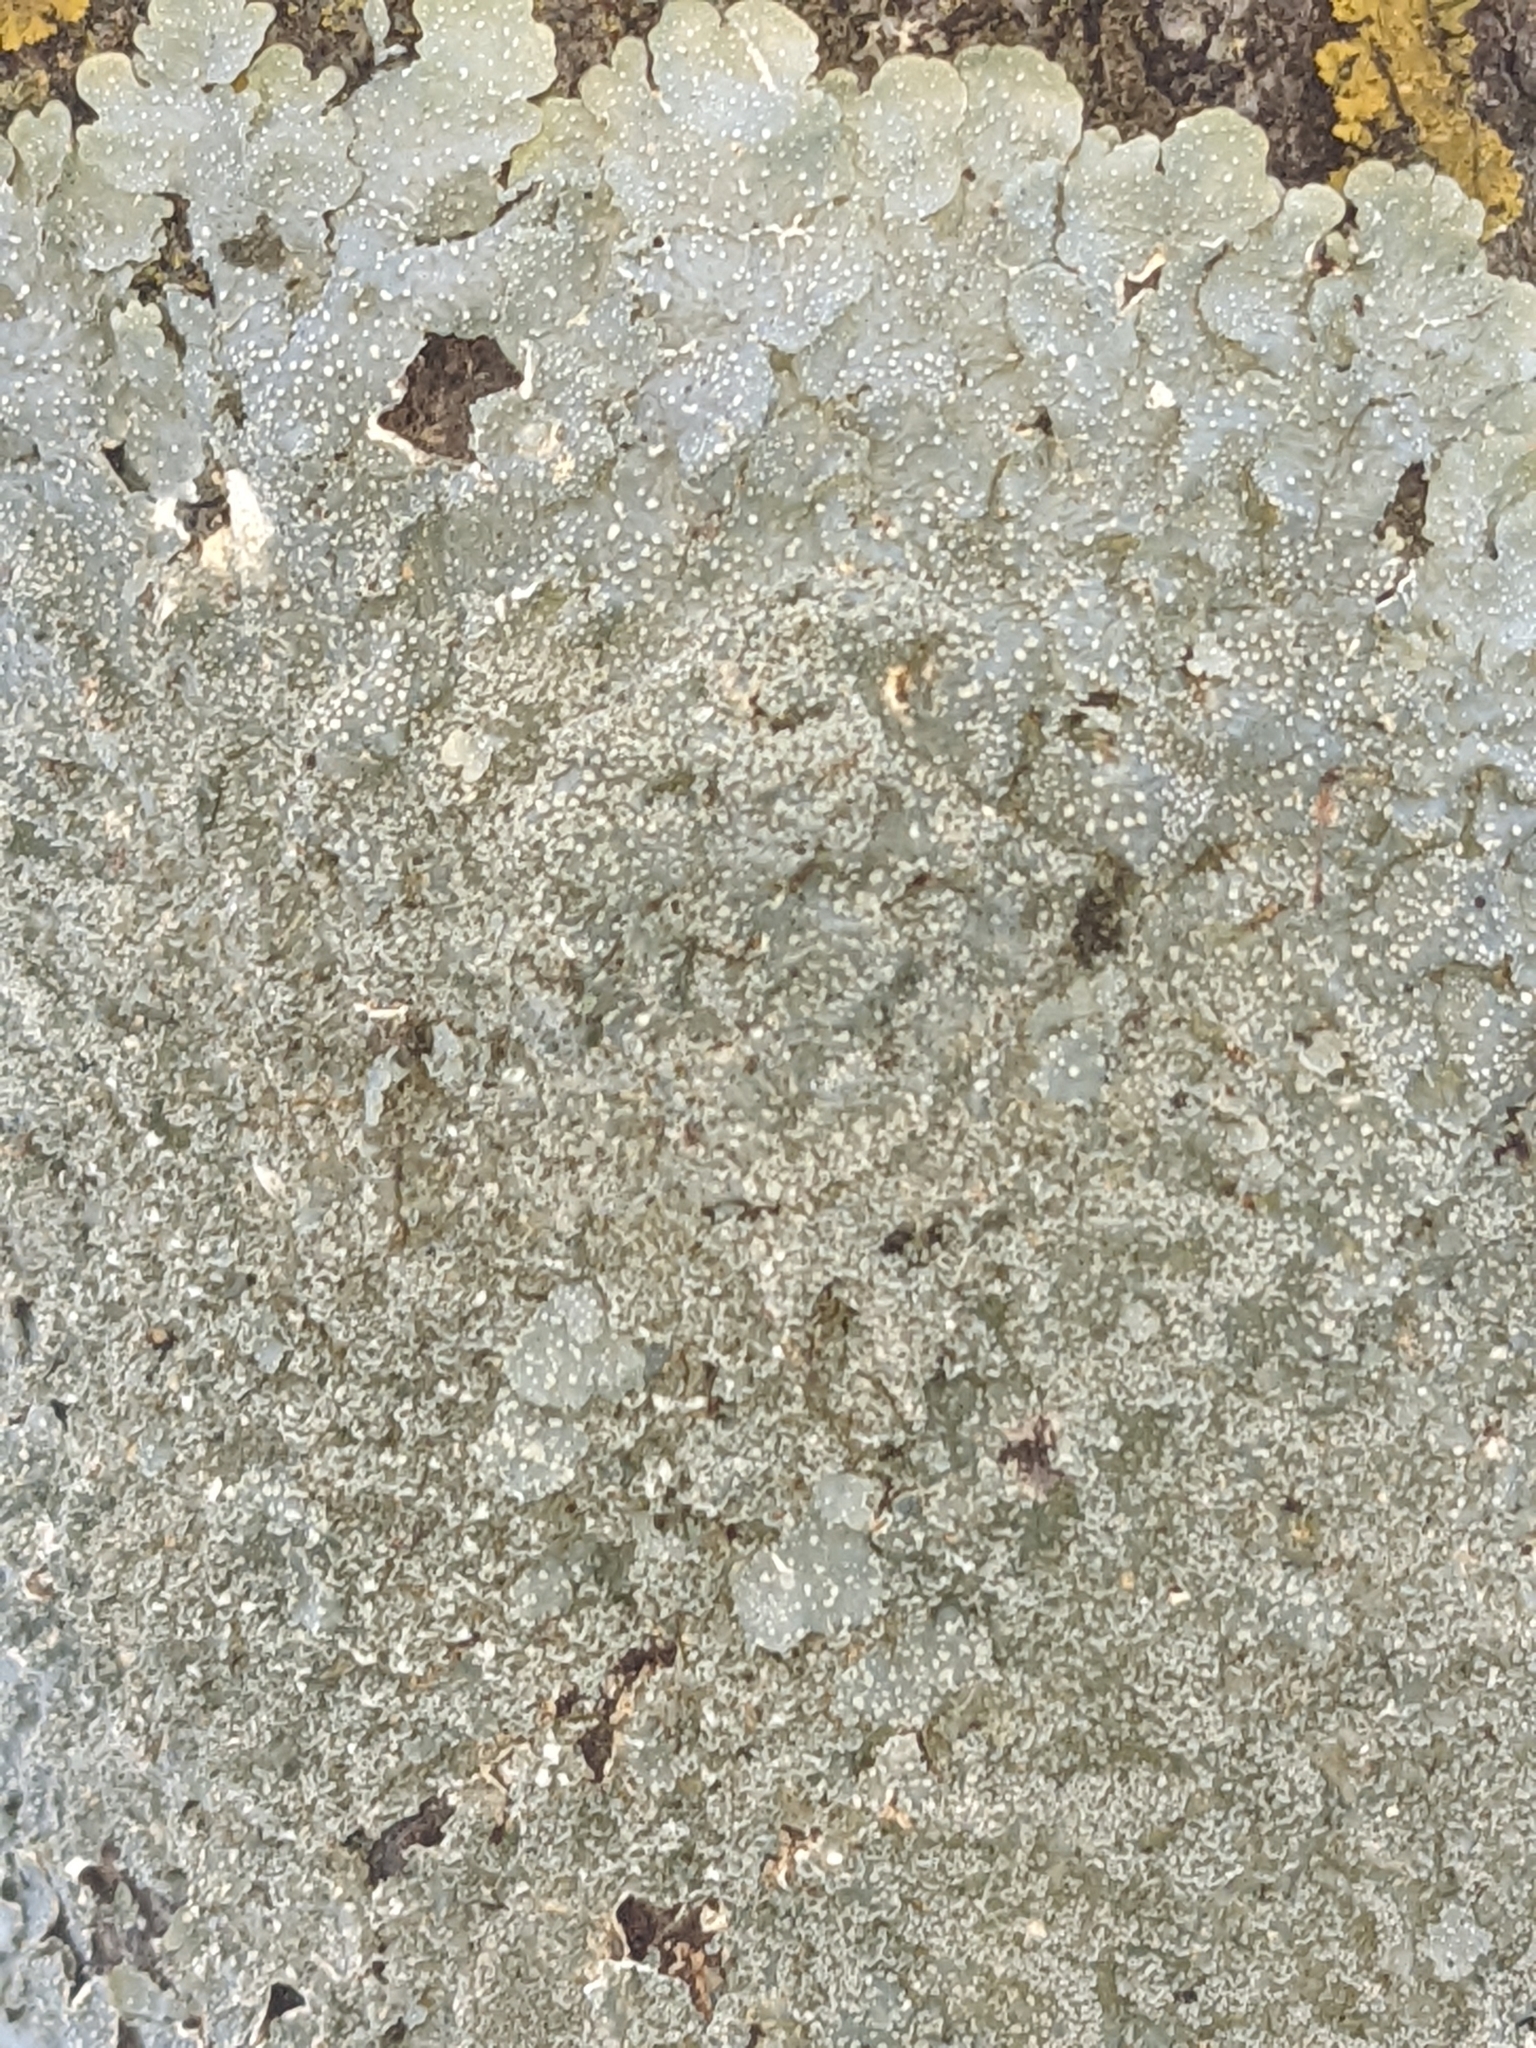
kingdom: Fungi
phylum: Ascomycota
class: Lecanoromycetes
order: Lecanorales
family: Parmeliaceae
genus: Punctelia
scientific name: Punctelia missouriensis
